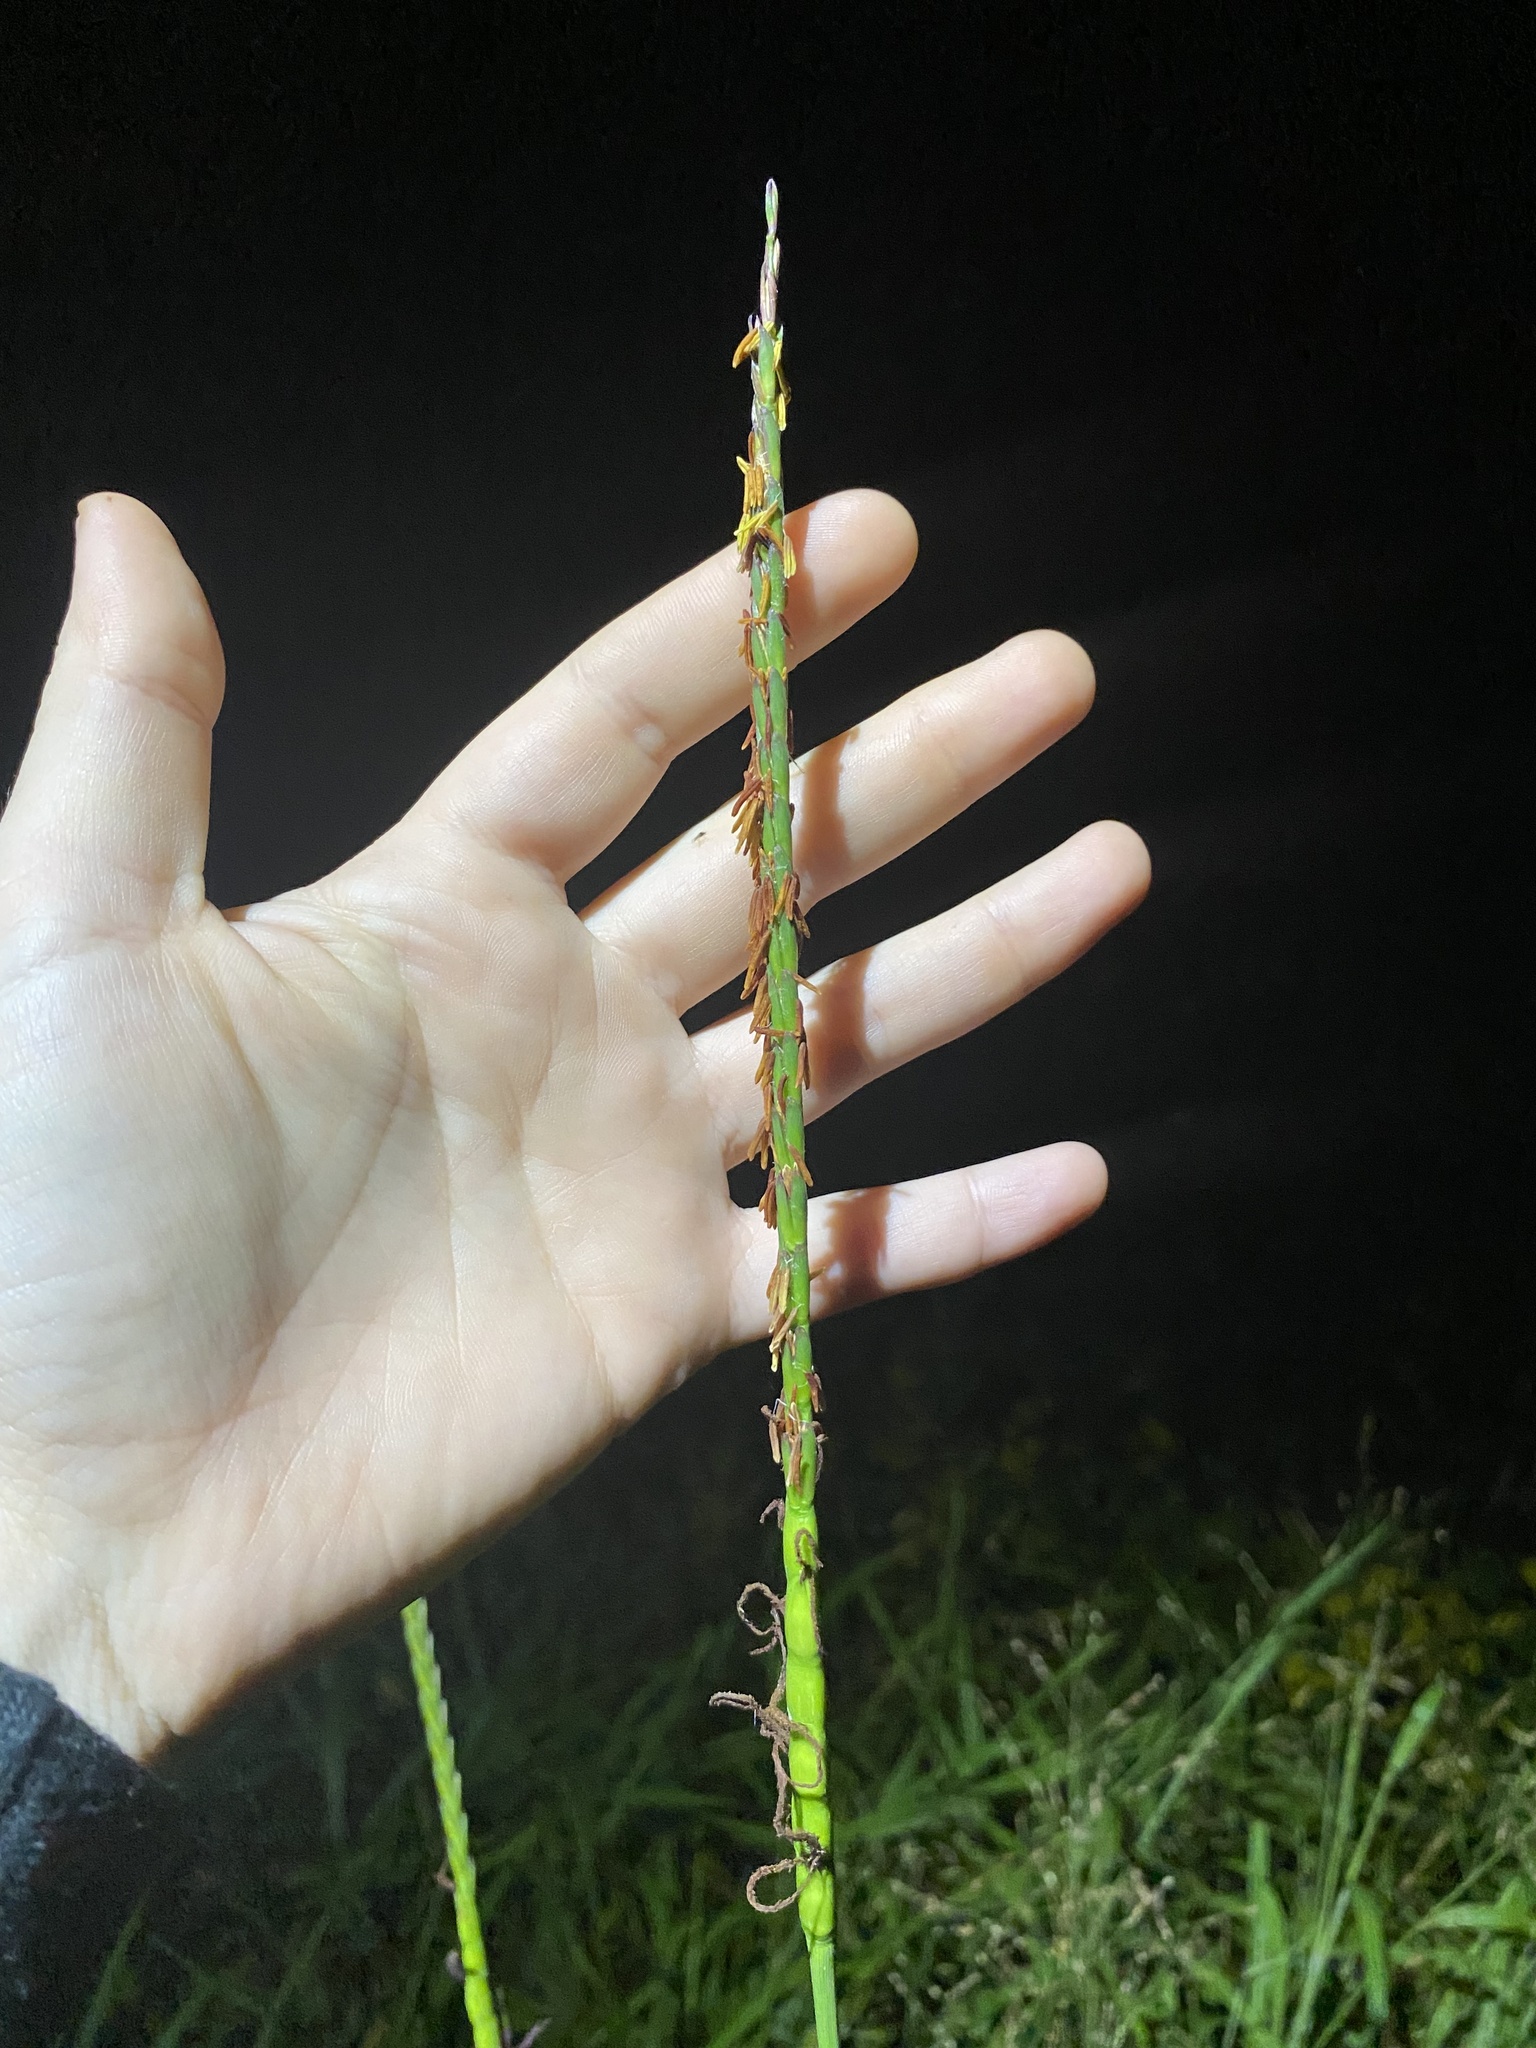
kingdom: Plantae
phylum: Tracheophyta
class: Liliopsida
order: Poales
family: Poaceae
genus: Tripsacum
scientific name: Tripsacum dactyloides
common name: Buffalo-grass
